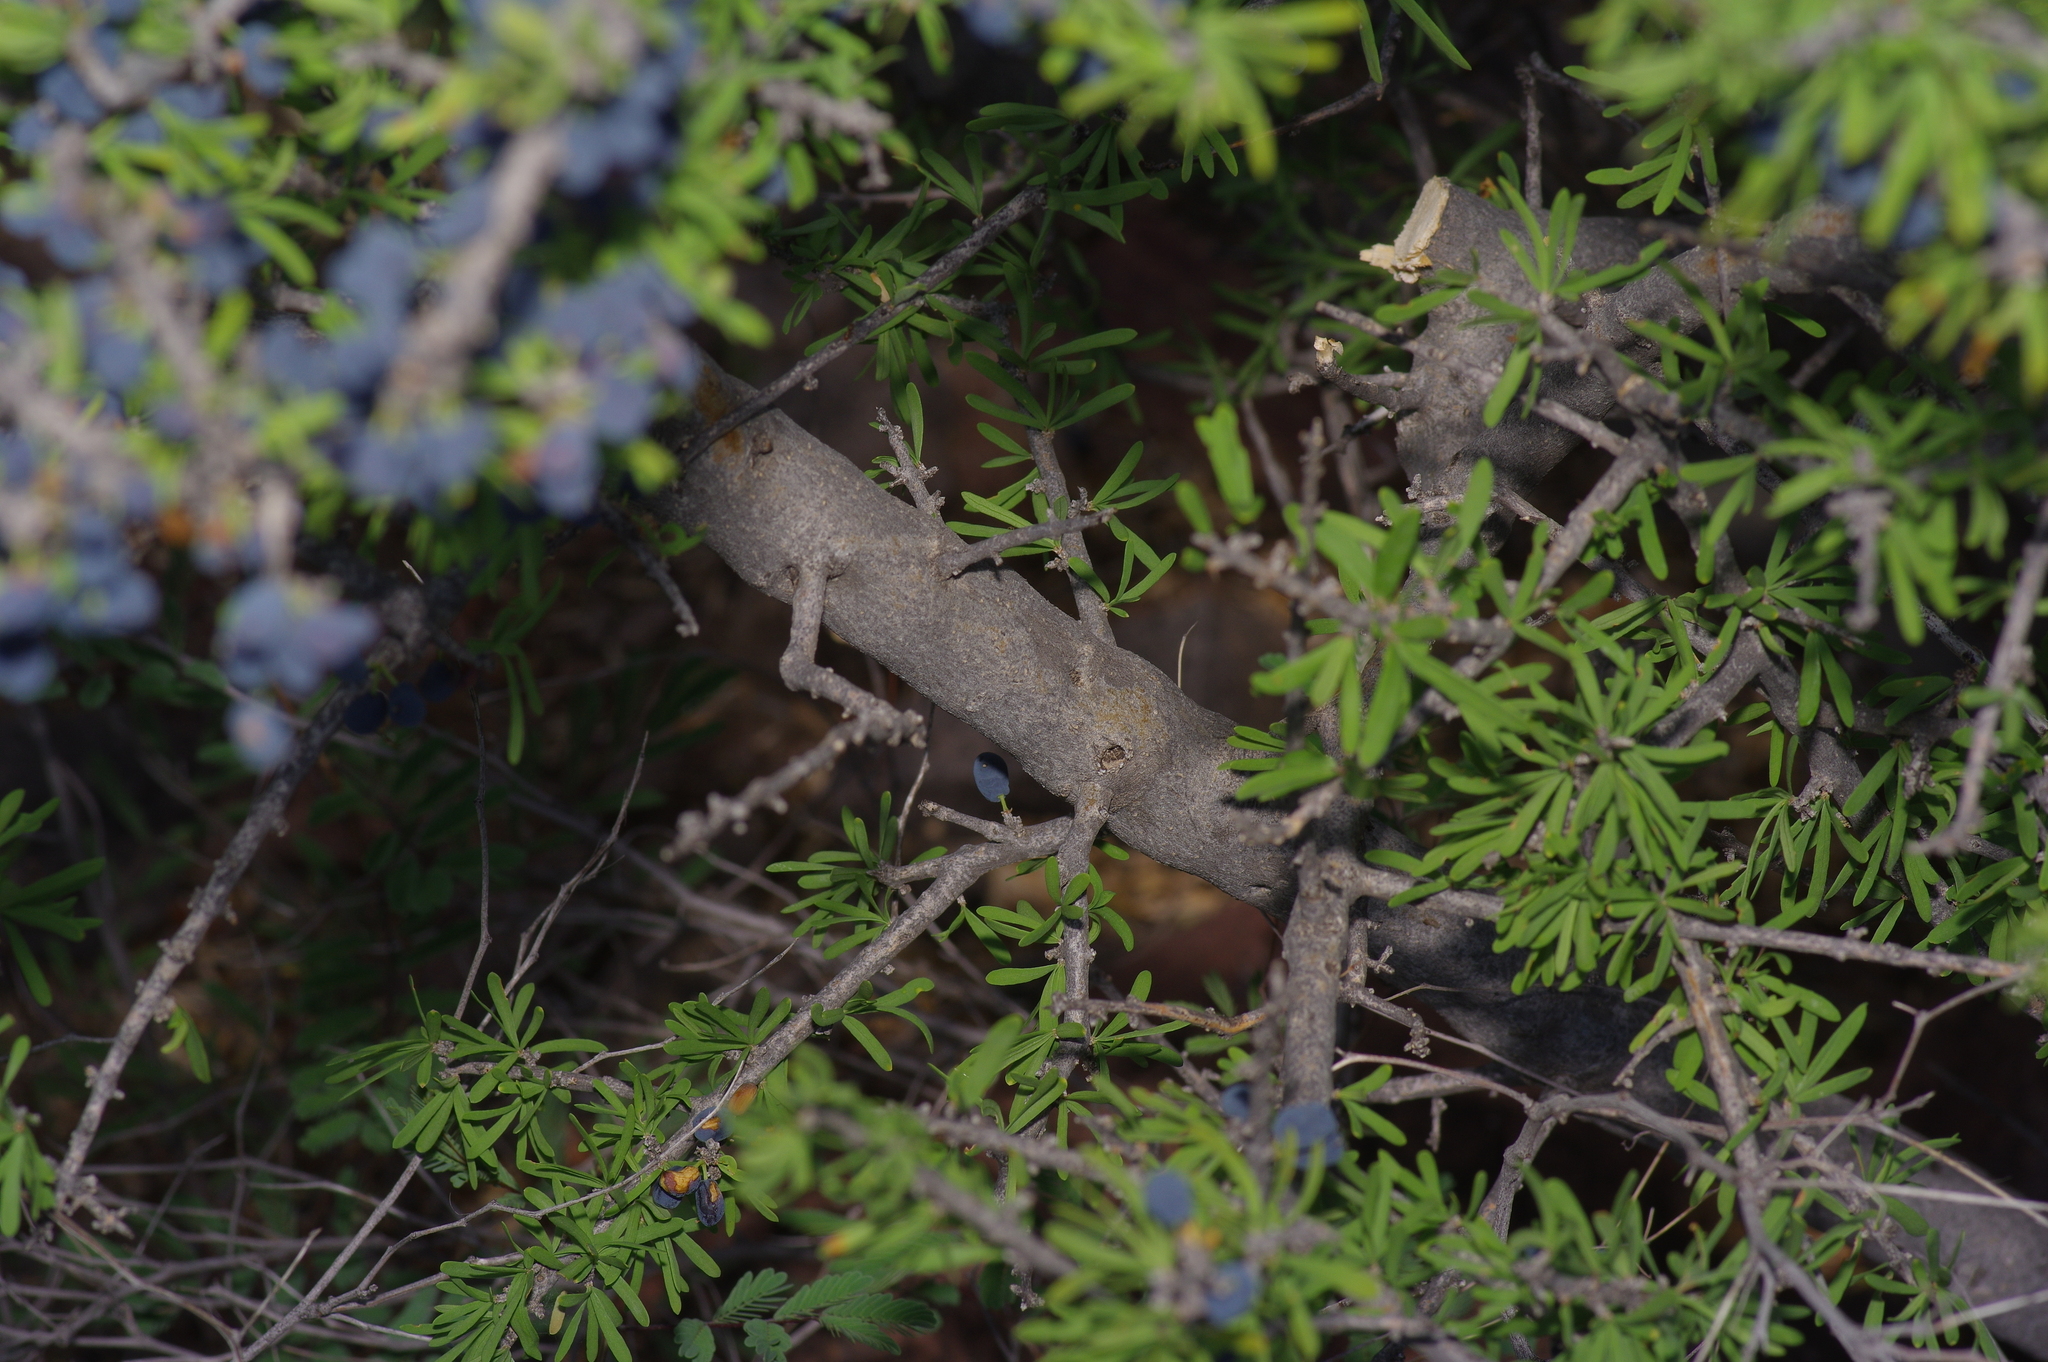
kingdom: Plantae
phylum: Tracheophyta
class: Magnoliopsida
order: Lamiales
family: Oleaceae
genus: Forestiera
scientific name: Forestiera angustifolia
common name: Elbowbush
